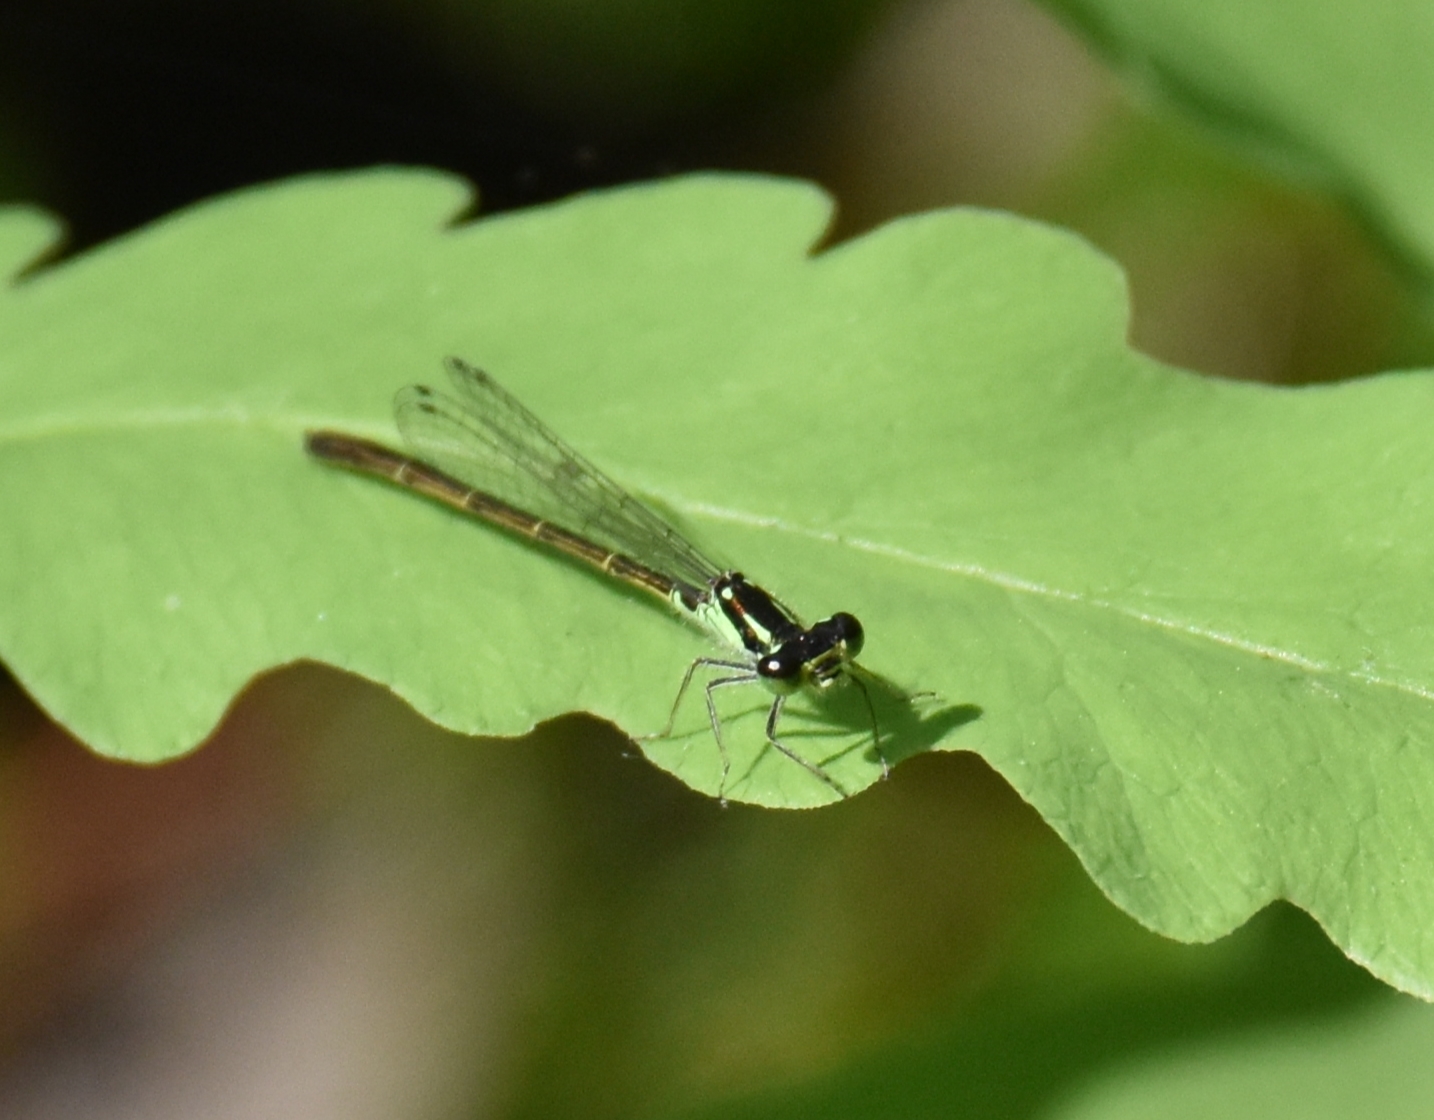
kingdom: Animalia
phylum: Arthropoda
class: Insecta
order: Odonata
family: Coenagrionidae
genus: Ischnura
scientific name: Ischnura posita
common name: Fragile forktail
